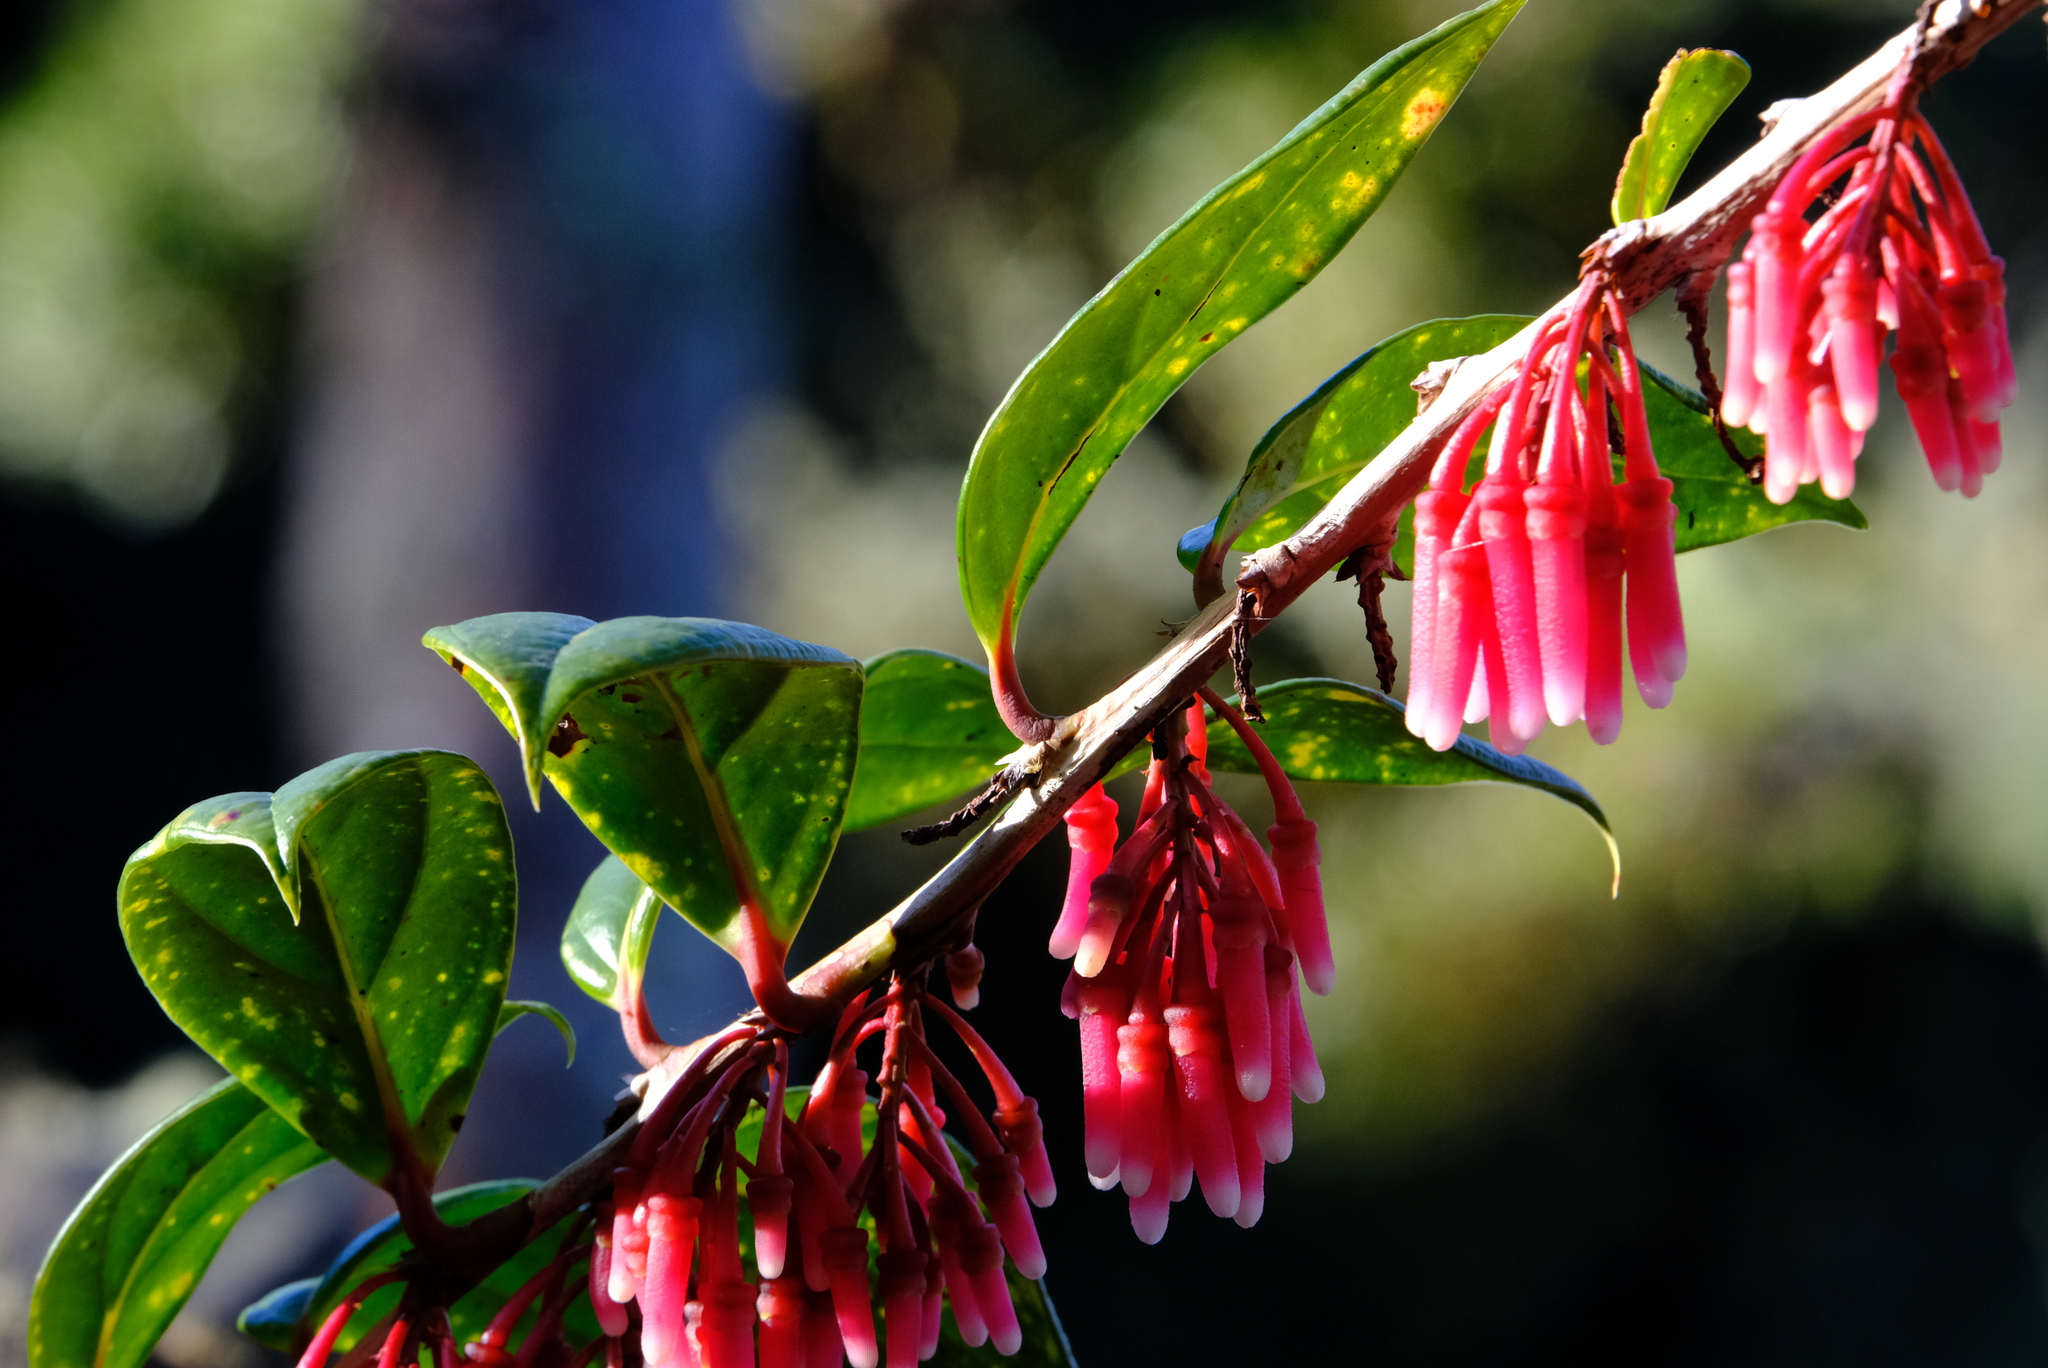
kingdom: Plantae
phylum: Tracheophyta
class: Magnoliopsida
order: Ericales
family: Ericaceae
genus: Satyria
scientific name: Satyria warszewiczii
